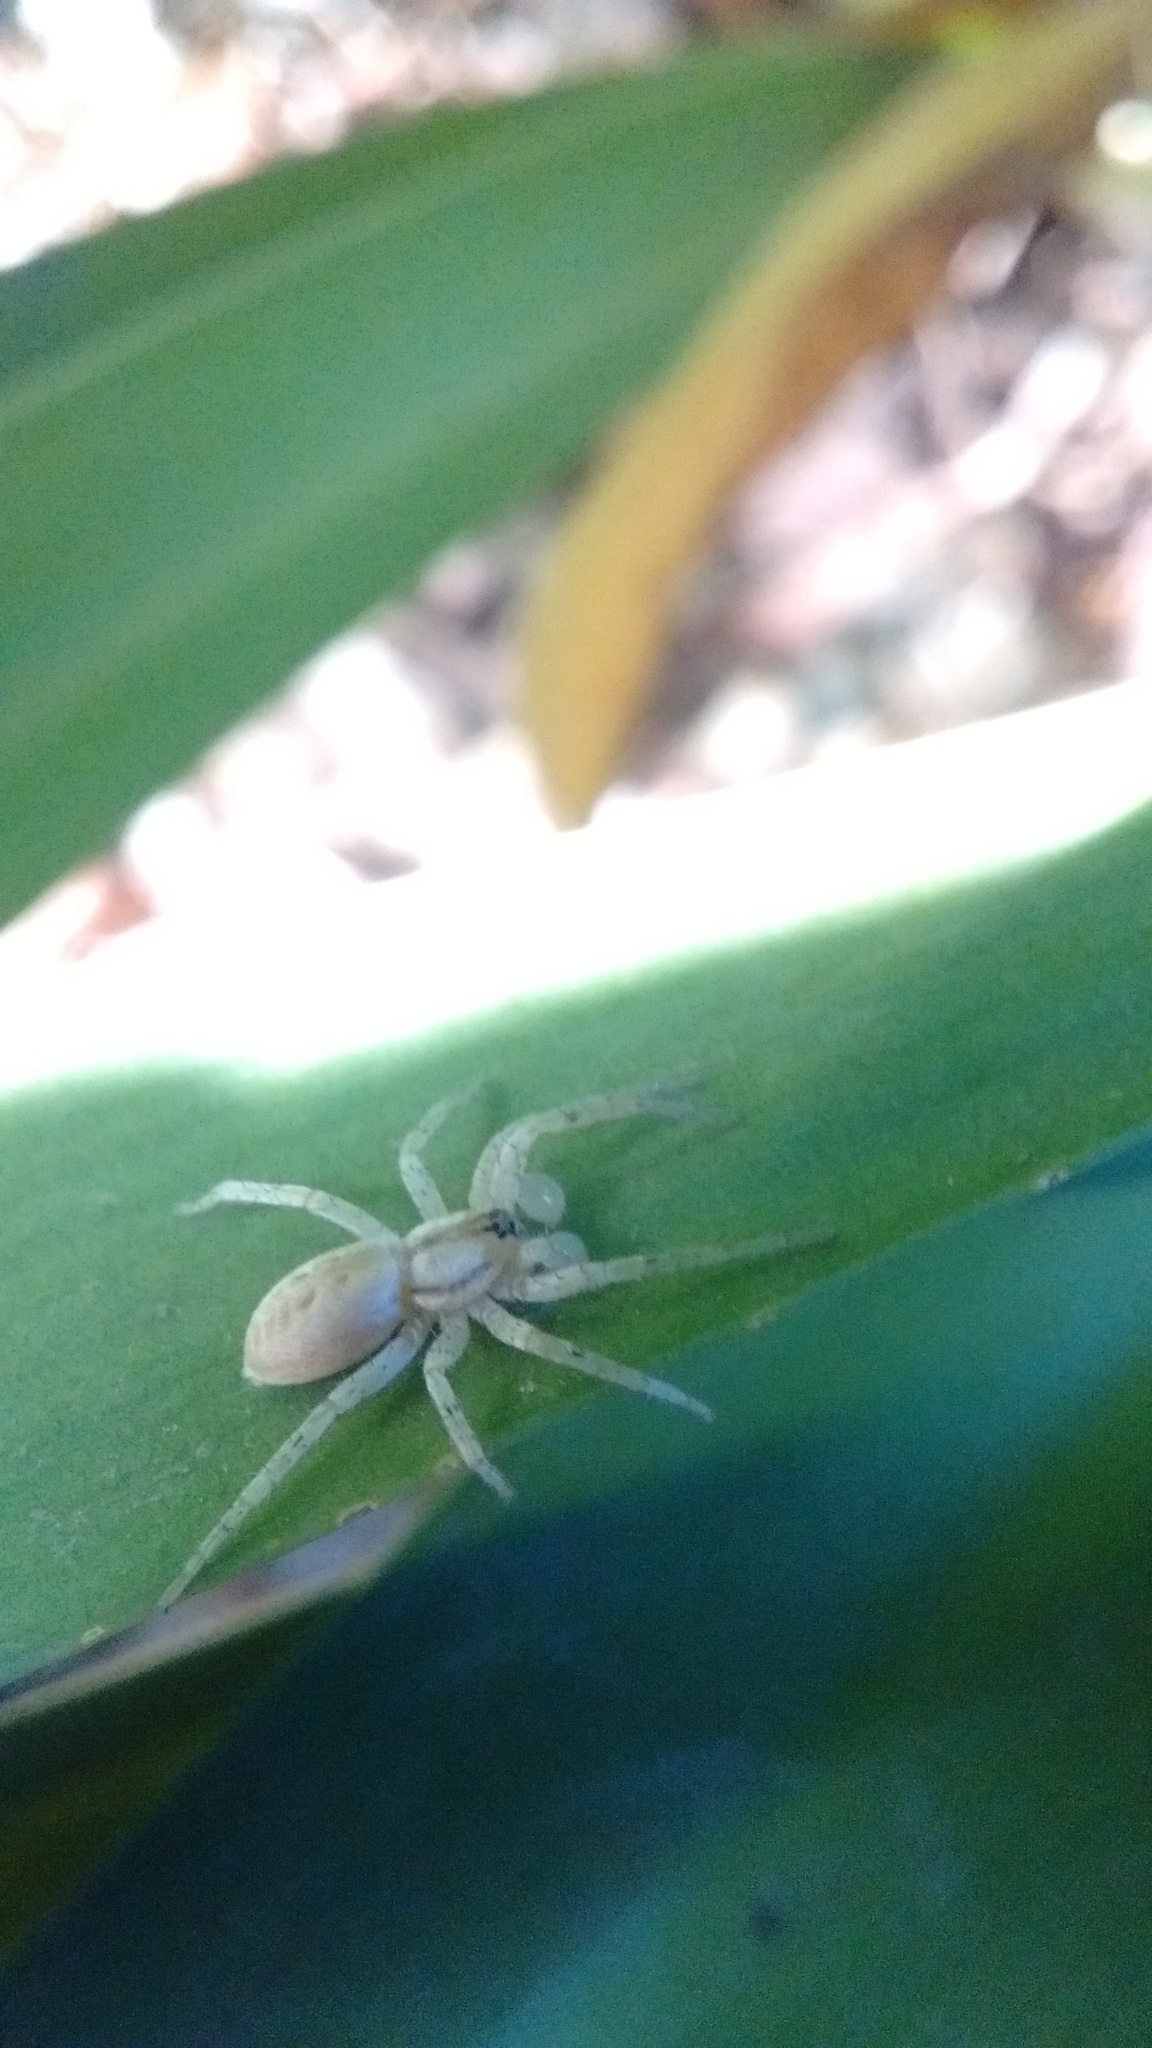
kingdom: Animalia
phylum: Arthropoda
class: Arachnida
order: Araneae
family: Anyphaenidae
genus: Arachosia
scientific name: Arachosia praesignis
